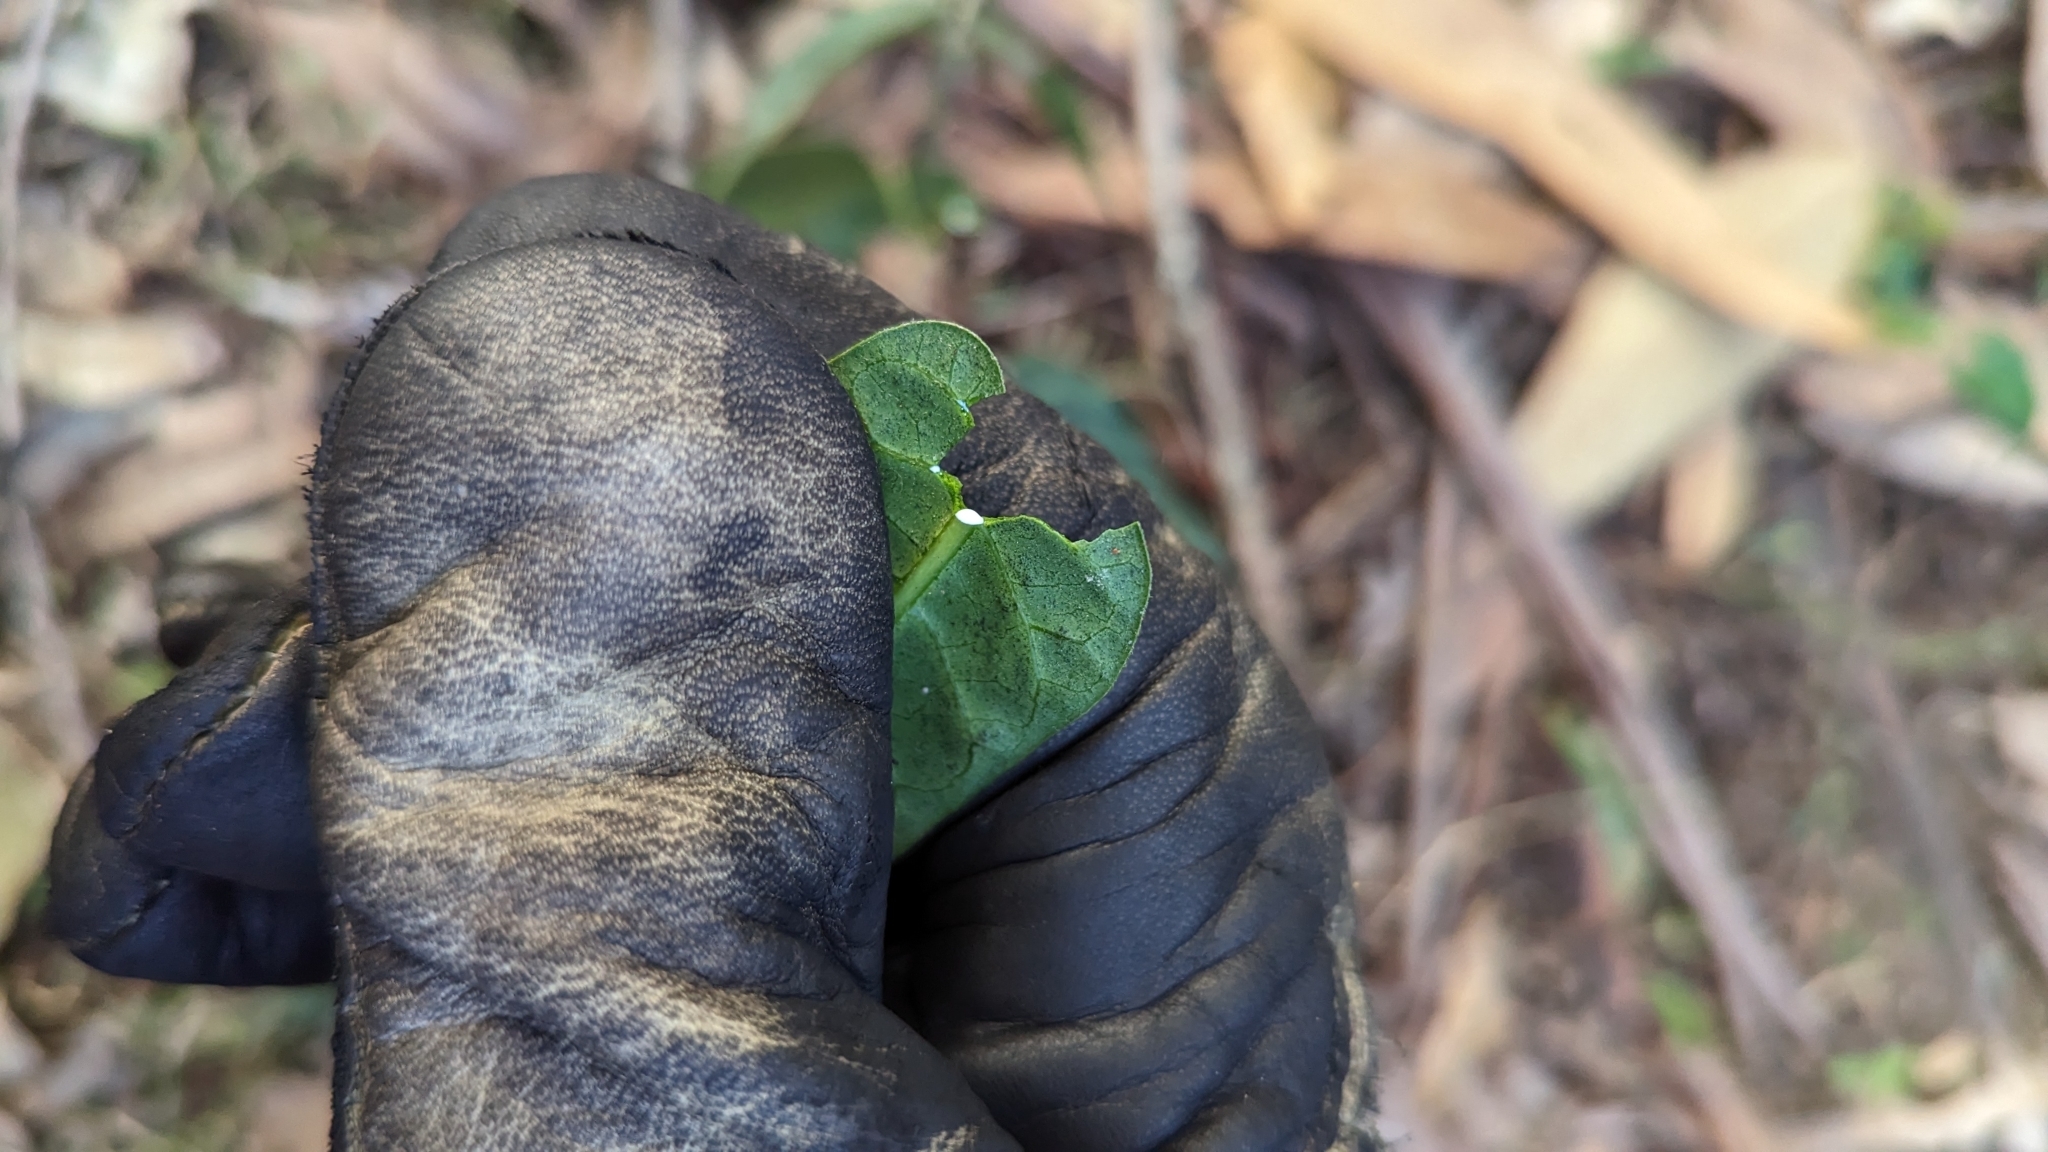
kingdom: Plantae
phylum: Tracheophyta
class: Magnoliopsida
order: Gentianales
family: Apocynaceae
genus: Leichhardtia
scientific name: Leichhardtia lloydii
